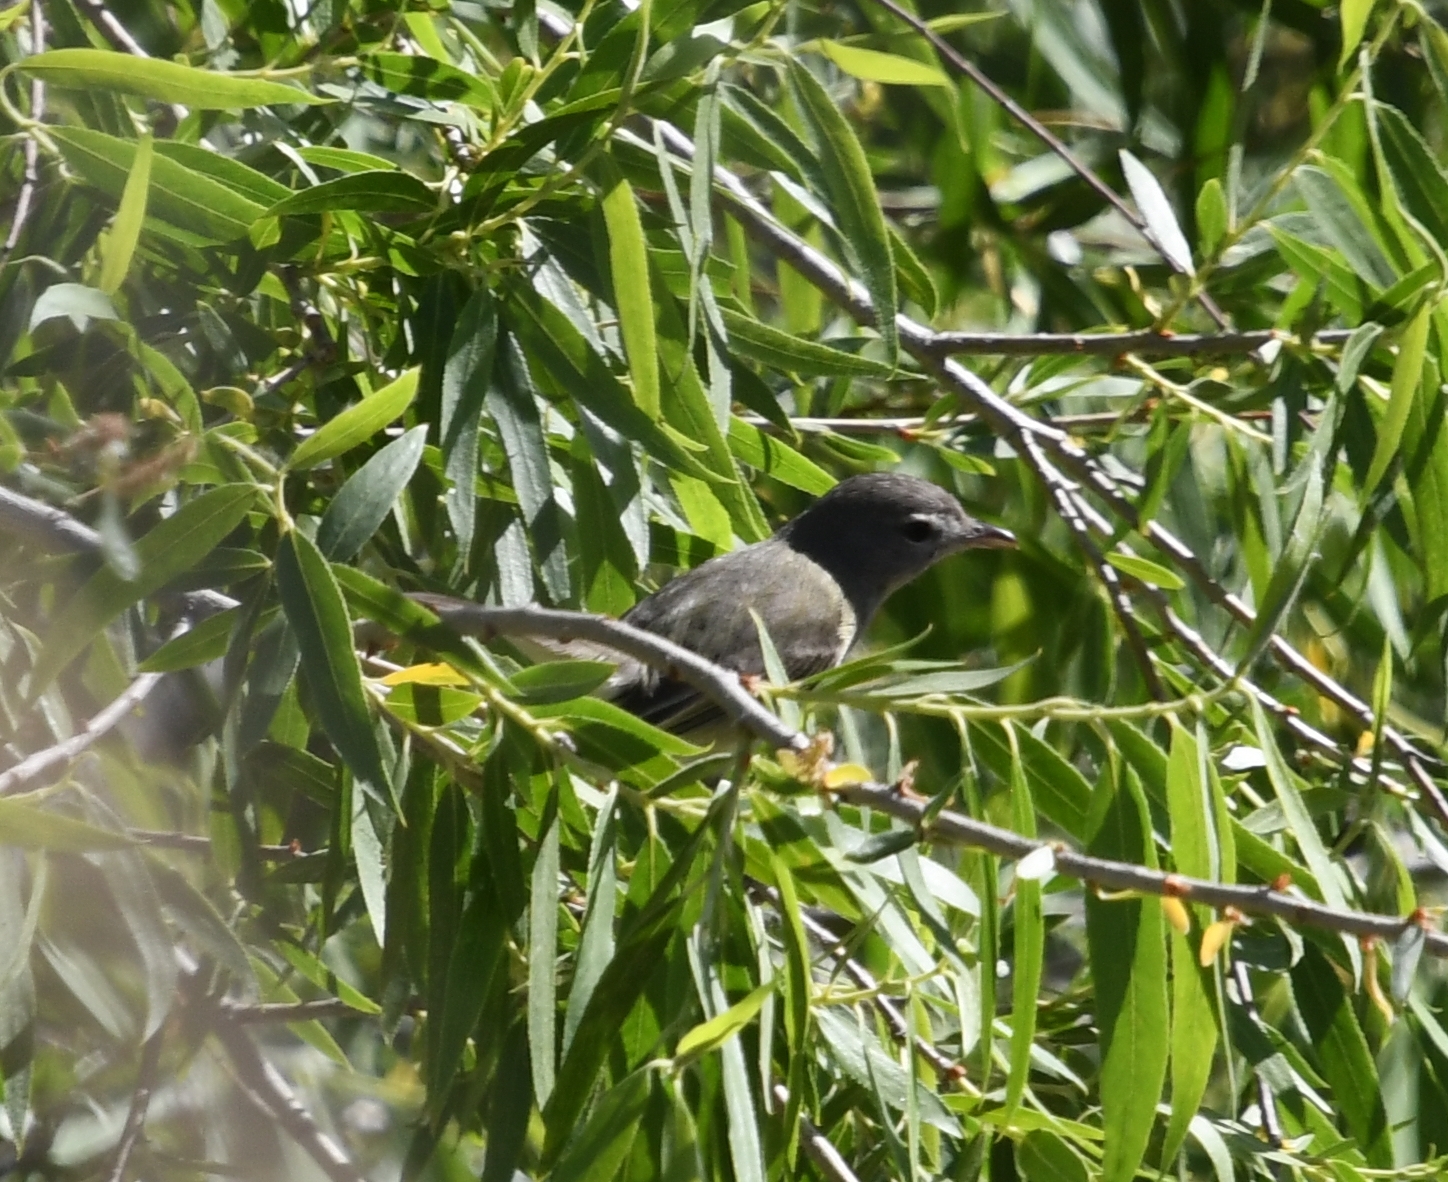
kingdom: Animalia
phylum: Chordata
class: Aves
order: Passeriformes
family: Vireonidae
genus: Vireo
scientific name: Vireo bellii
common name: Bell's vireo
